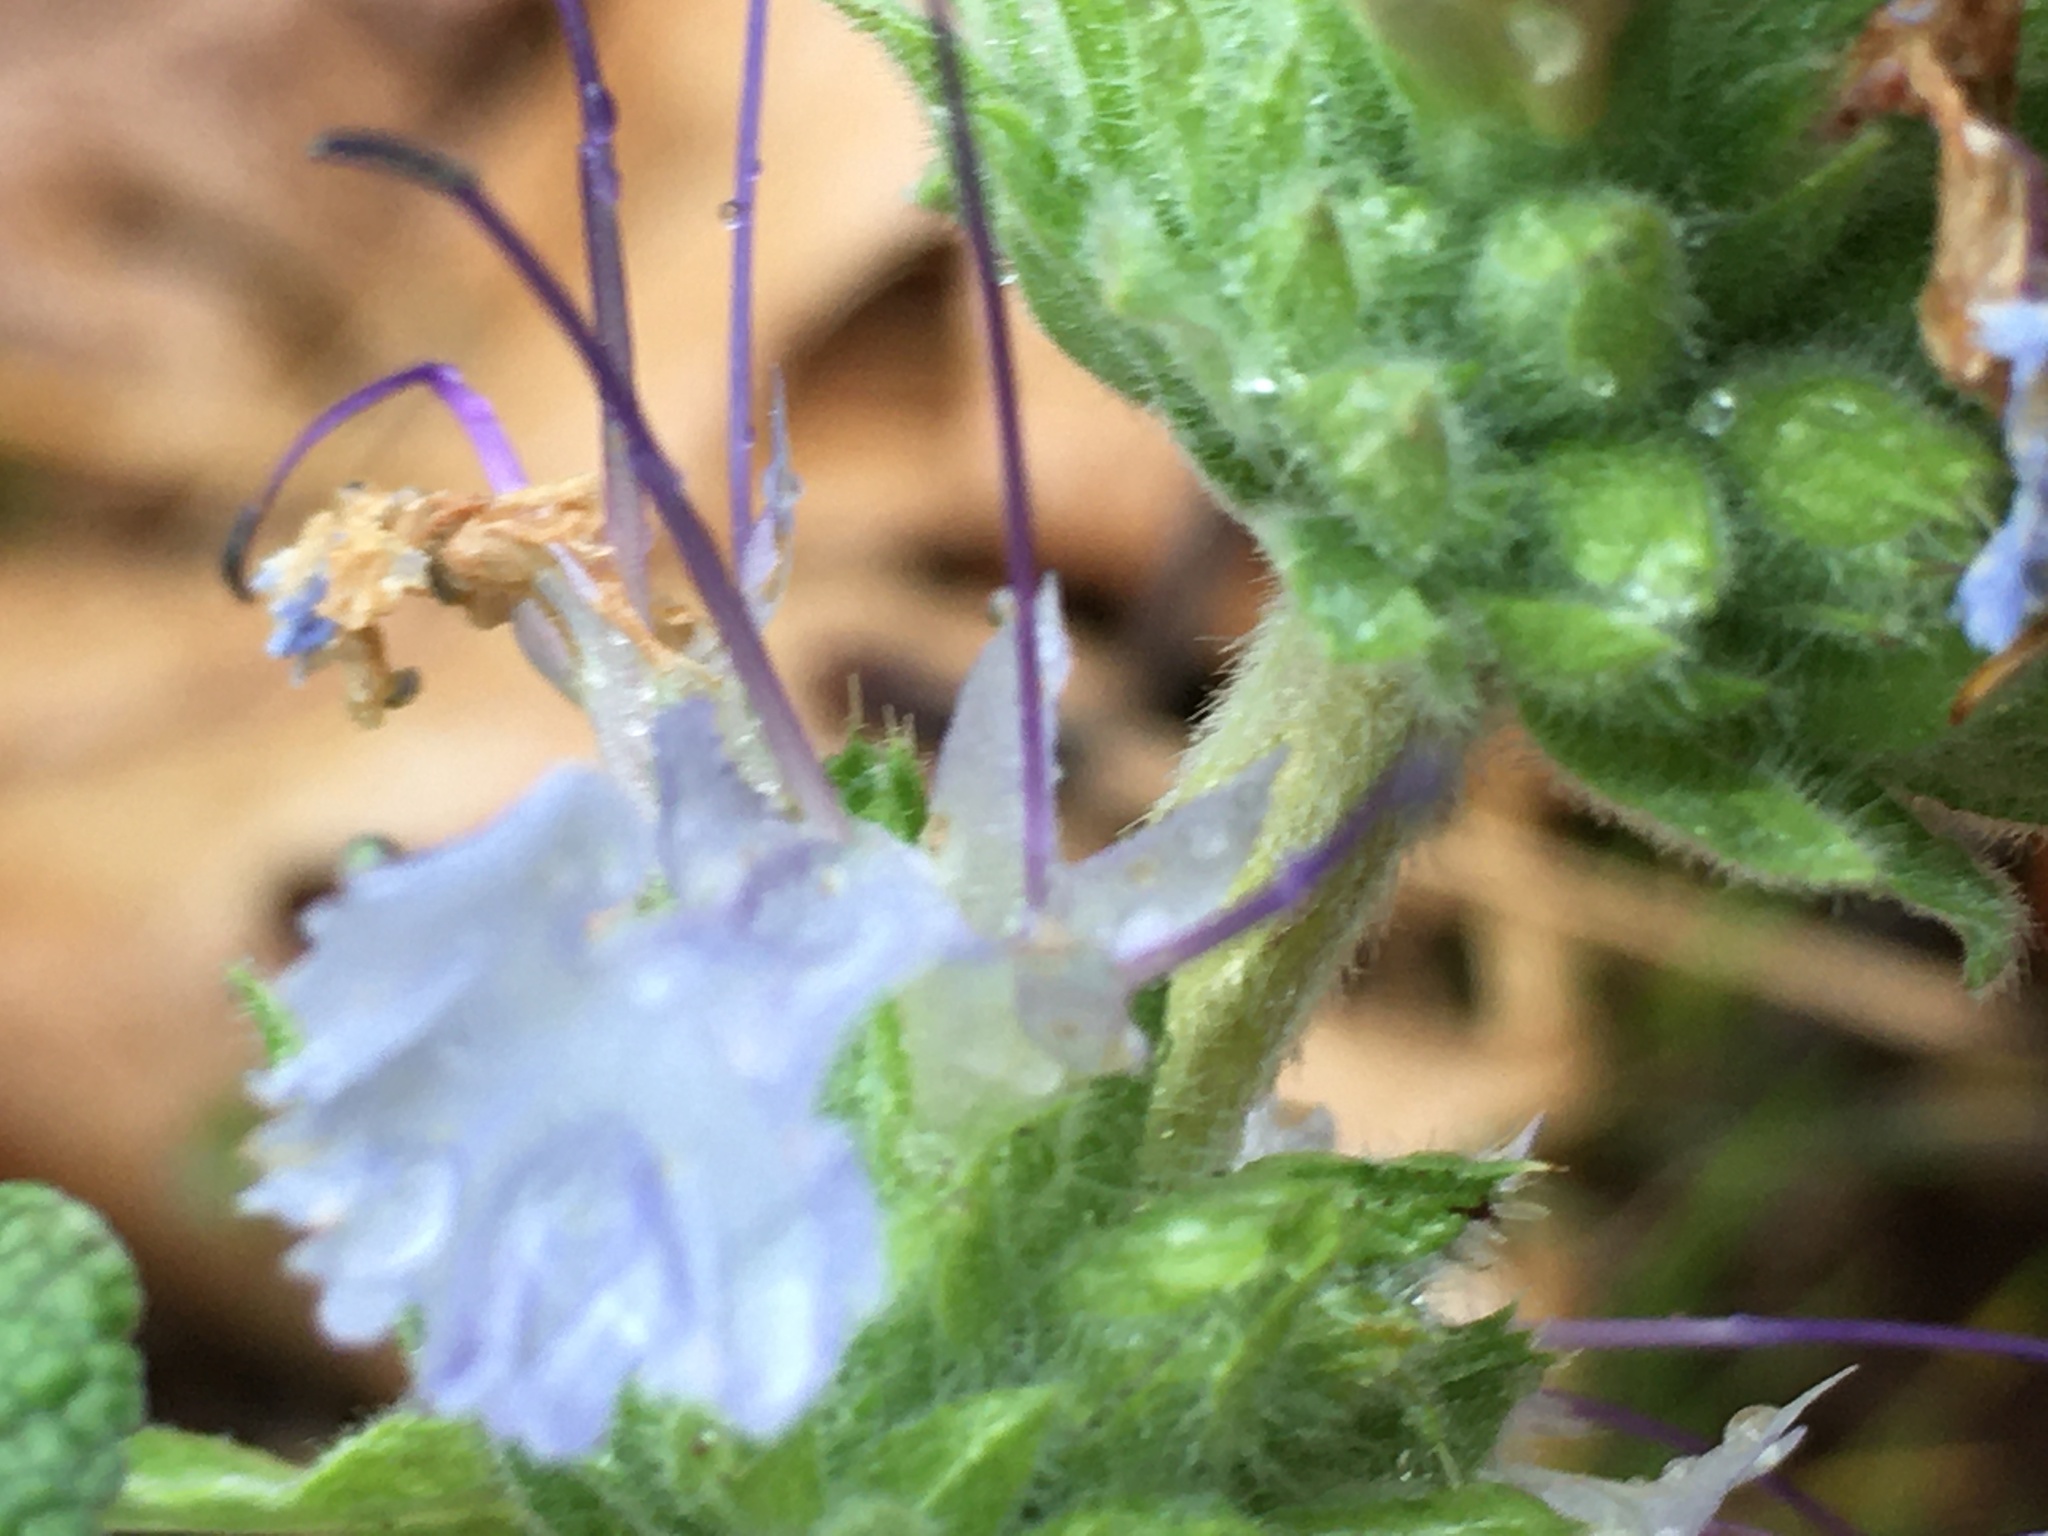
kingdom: Plantae
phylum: Tracheophyta
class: Magnoliopsida
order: Lamiales
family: Lamiaceae
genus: Salvia
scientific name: Salvia sonomensis
